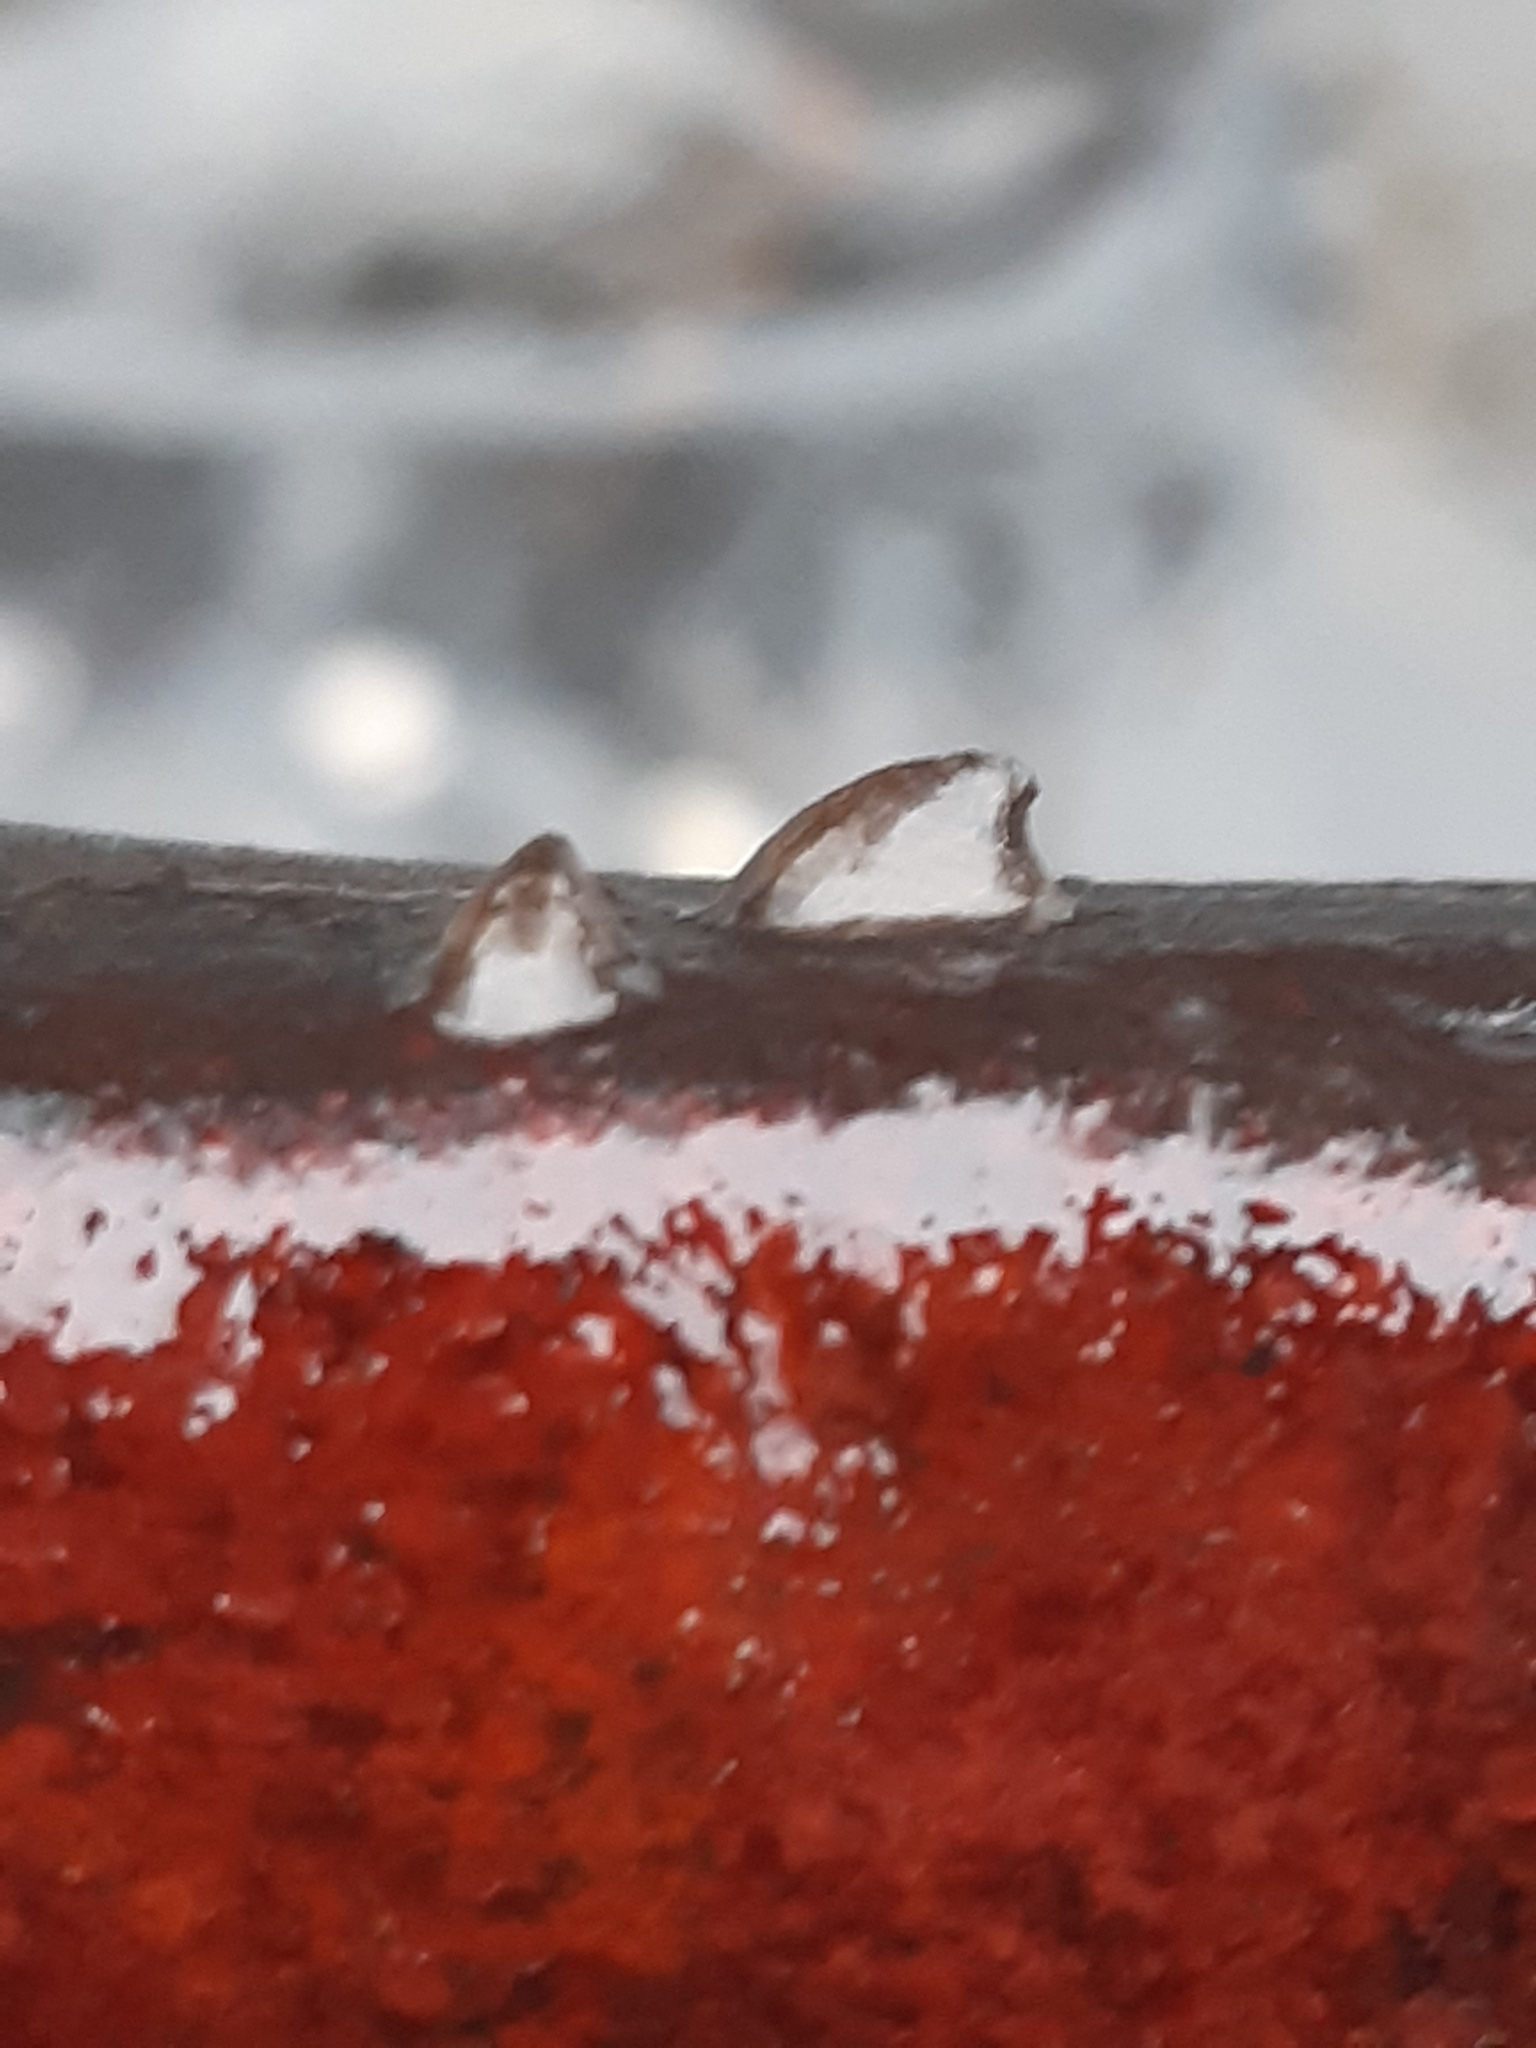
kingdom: Animalia
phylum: Mollusca
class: Gastropoda
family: Planorbidae
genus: Ancylus
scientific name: Ancylus fluviatilis
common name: River limpet
